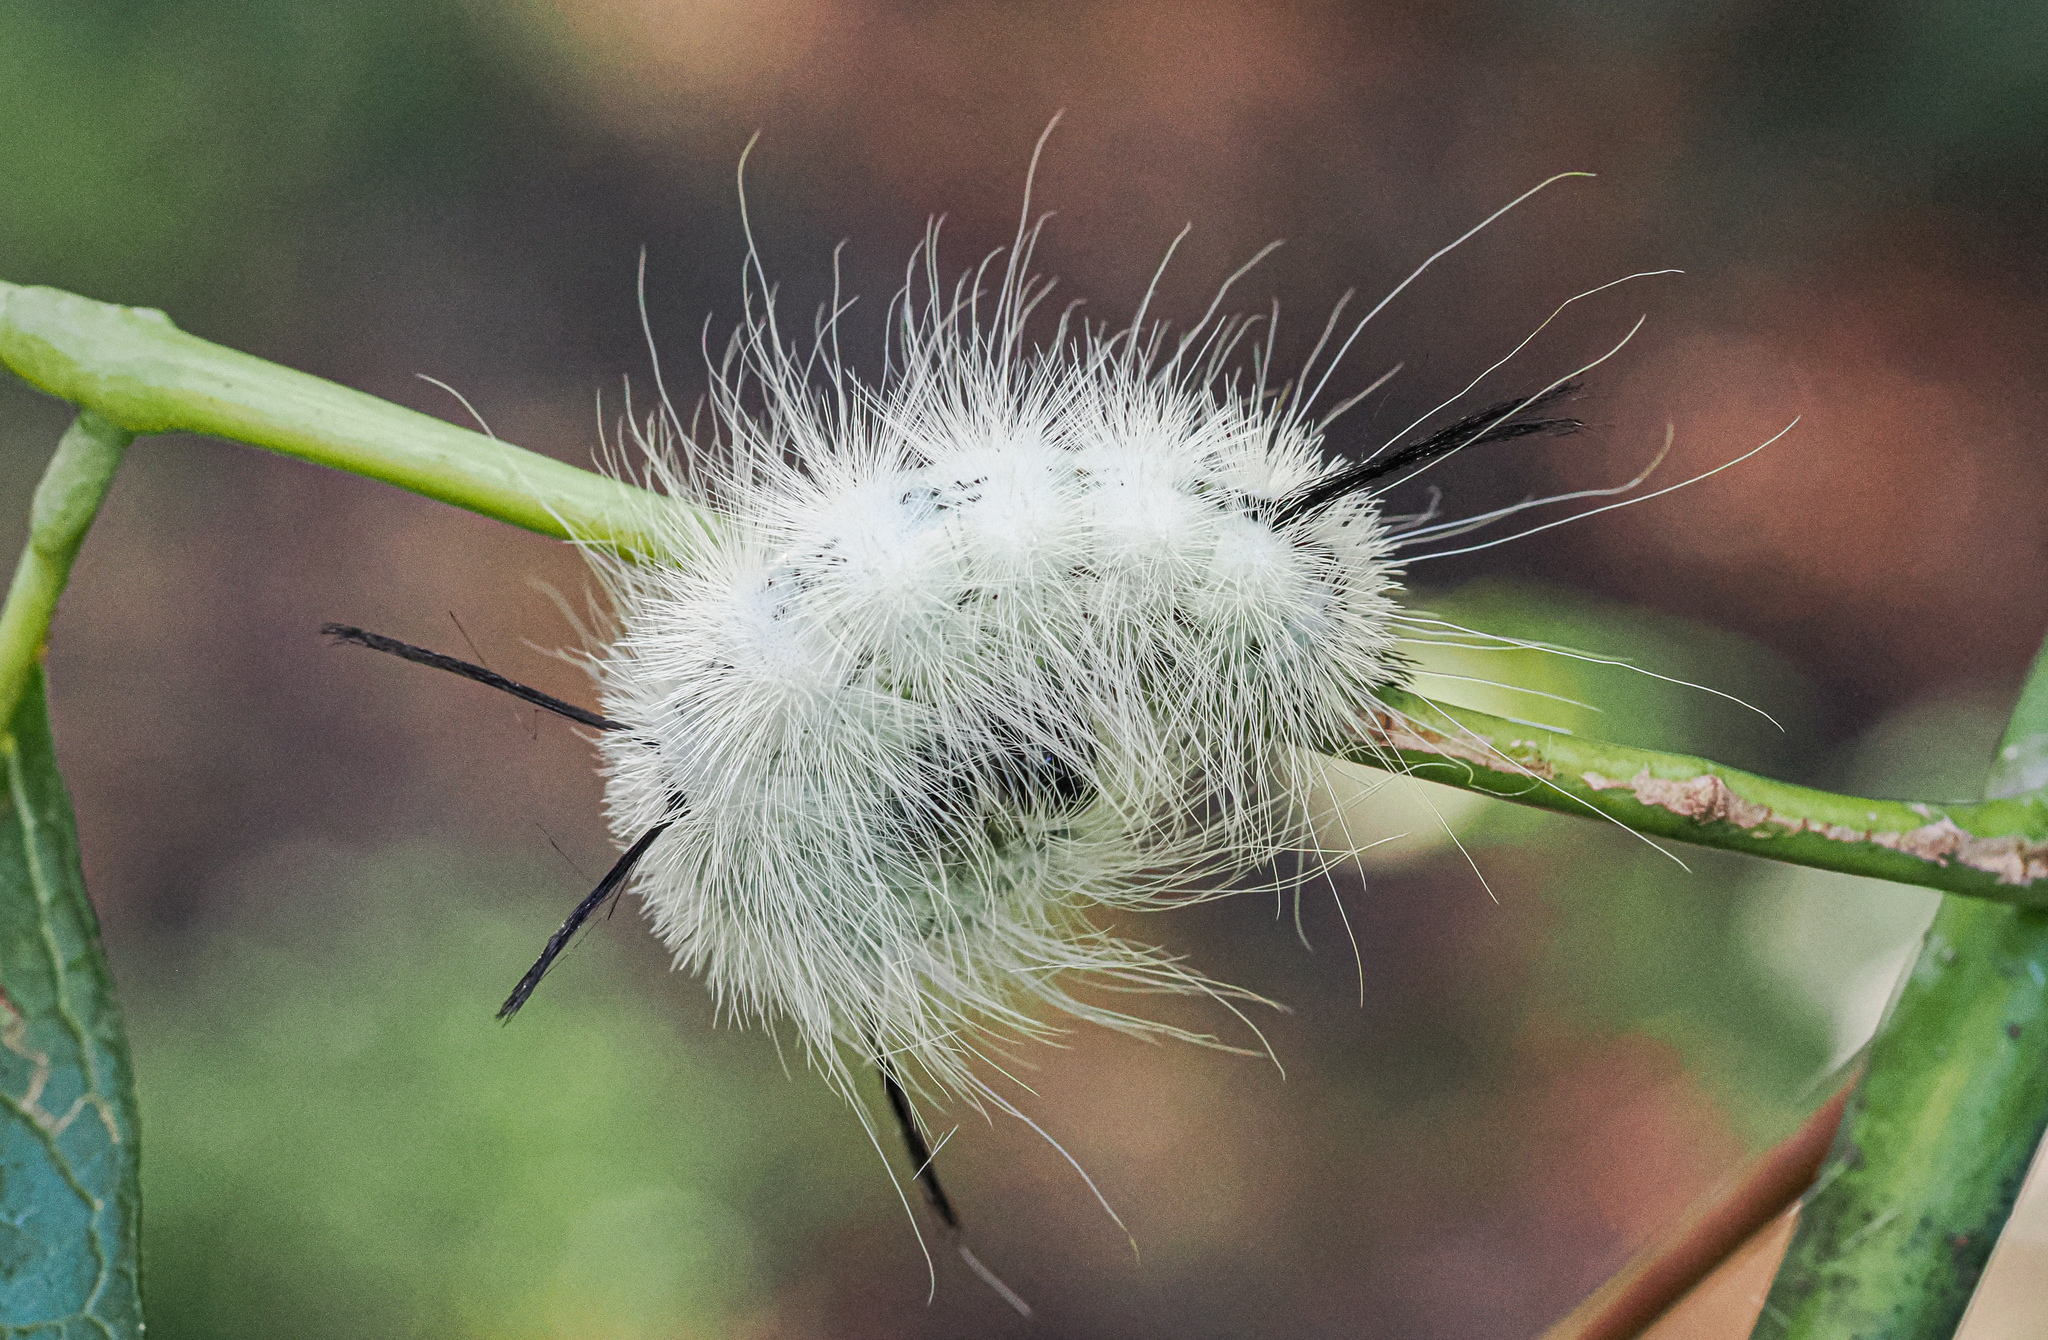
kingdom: Animalia
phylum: Arthropoda
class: Insecta
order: Lepidoptera
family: Noctuidae
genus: Acronicta
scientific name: Acronicta americana
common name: American dagger
